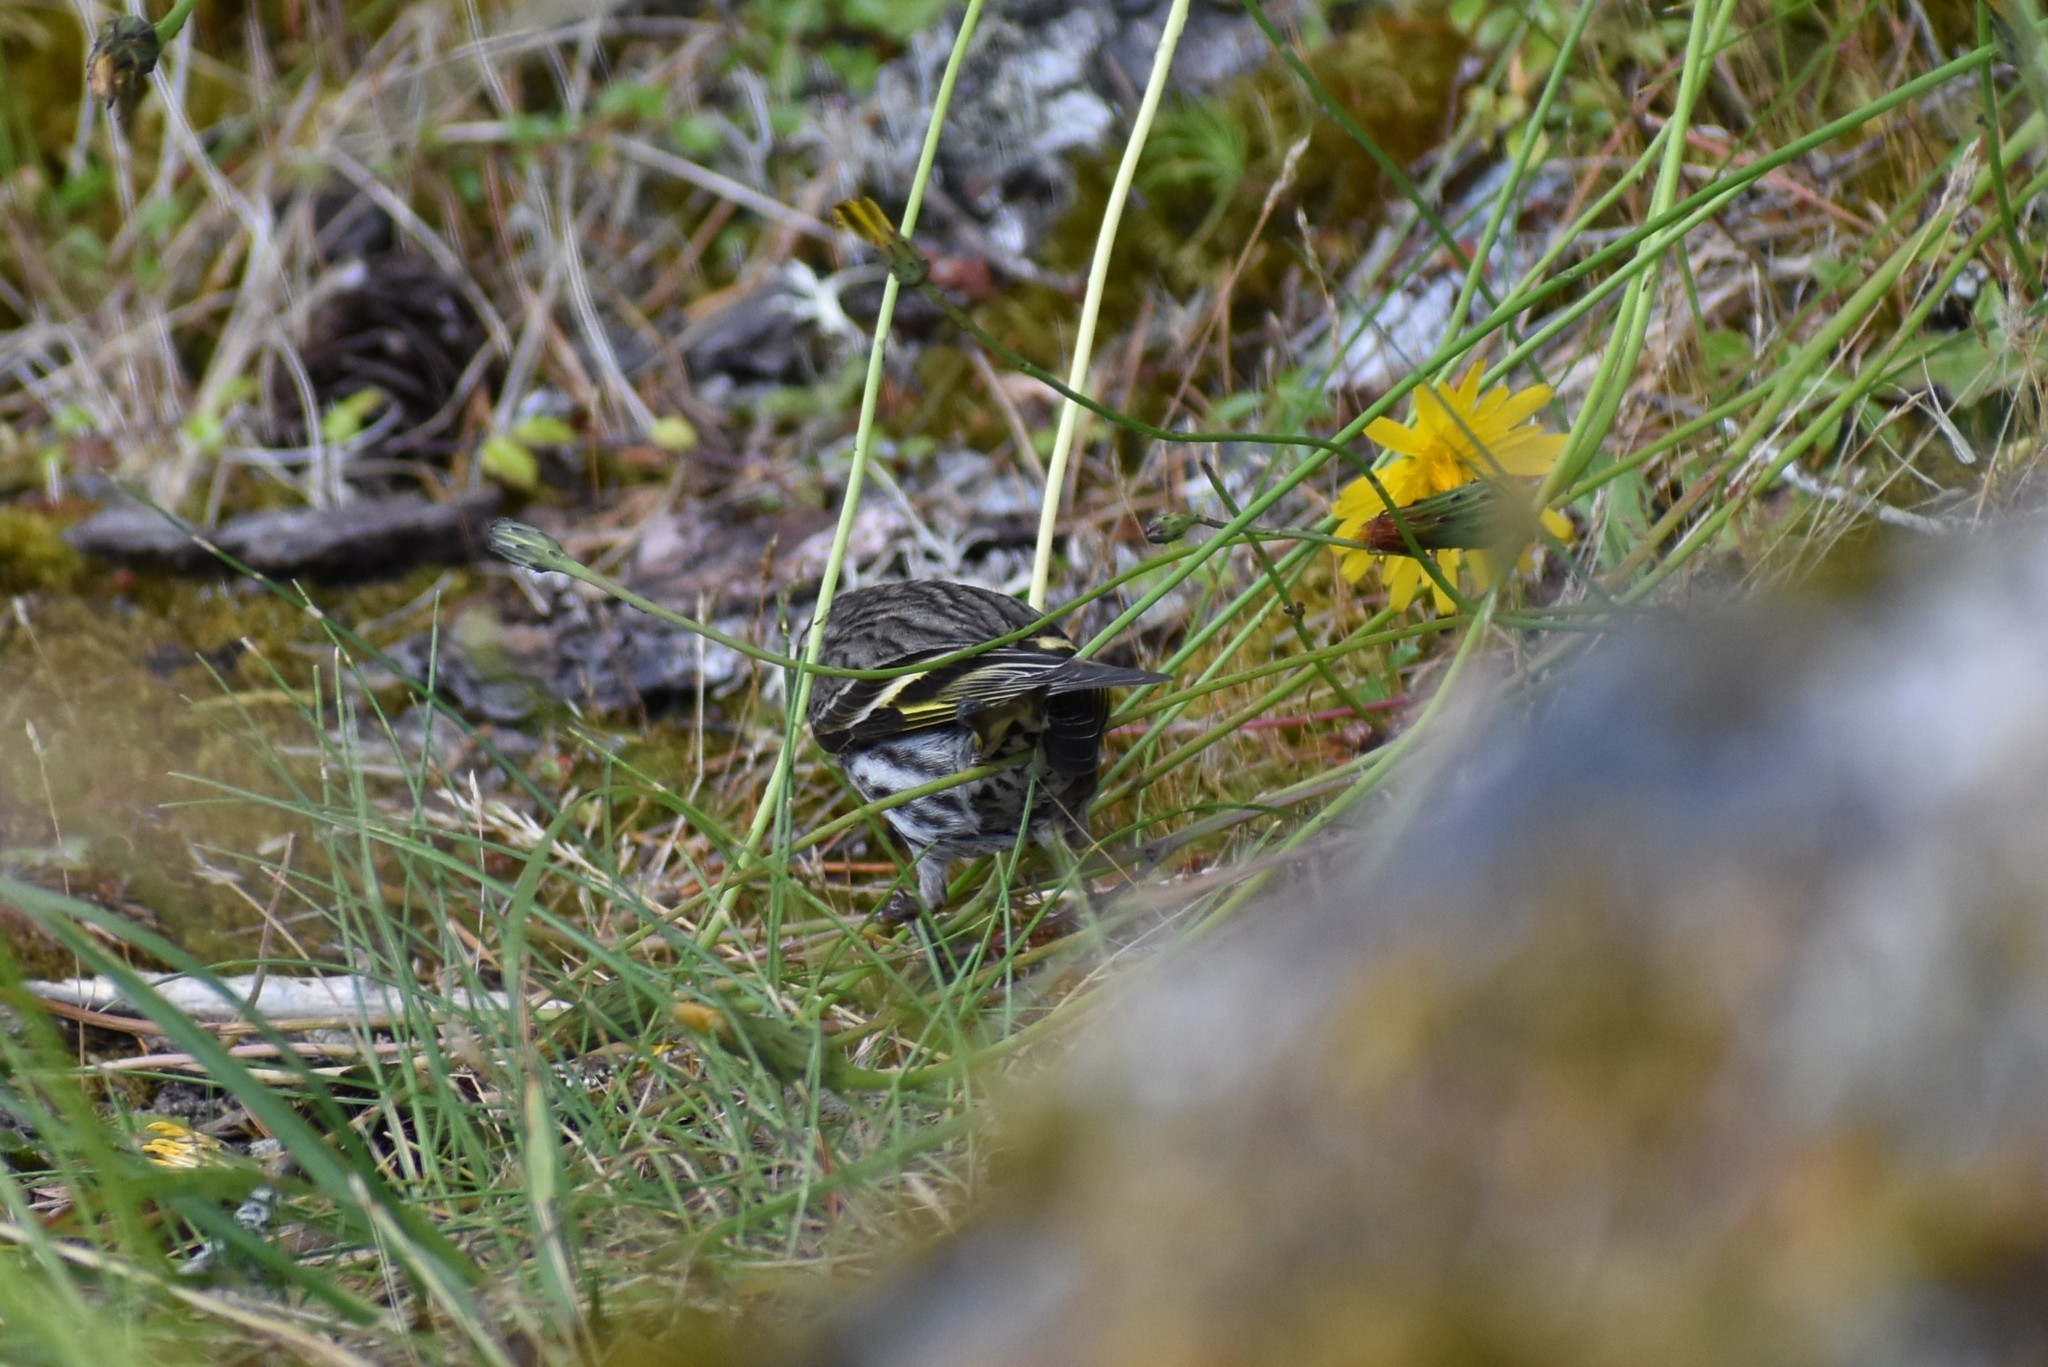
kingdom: Animalia
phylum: Chordata
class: Aves
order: Passeriformes
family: Fringillidae
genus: Spinus
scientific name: Spinus pinus
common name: Pine siskin
